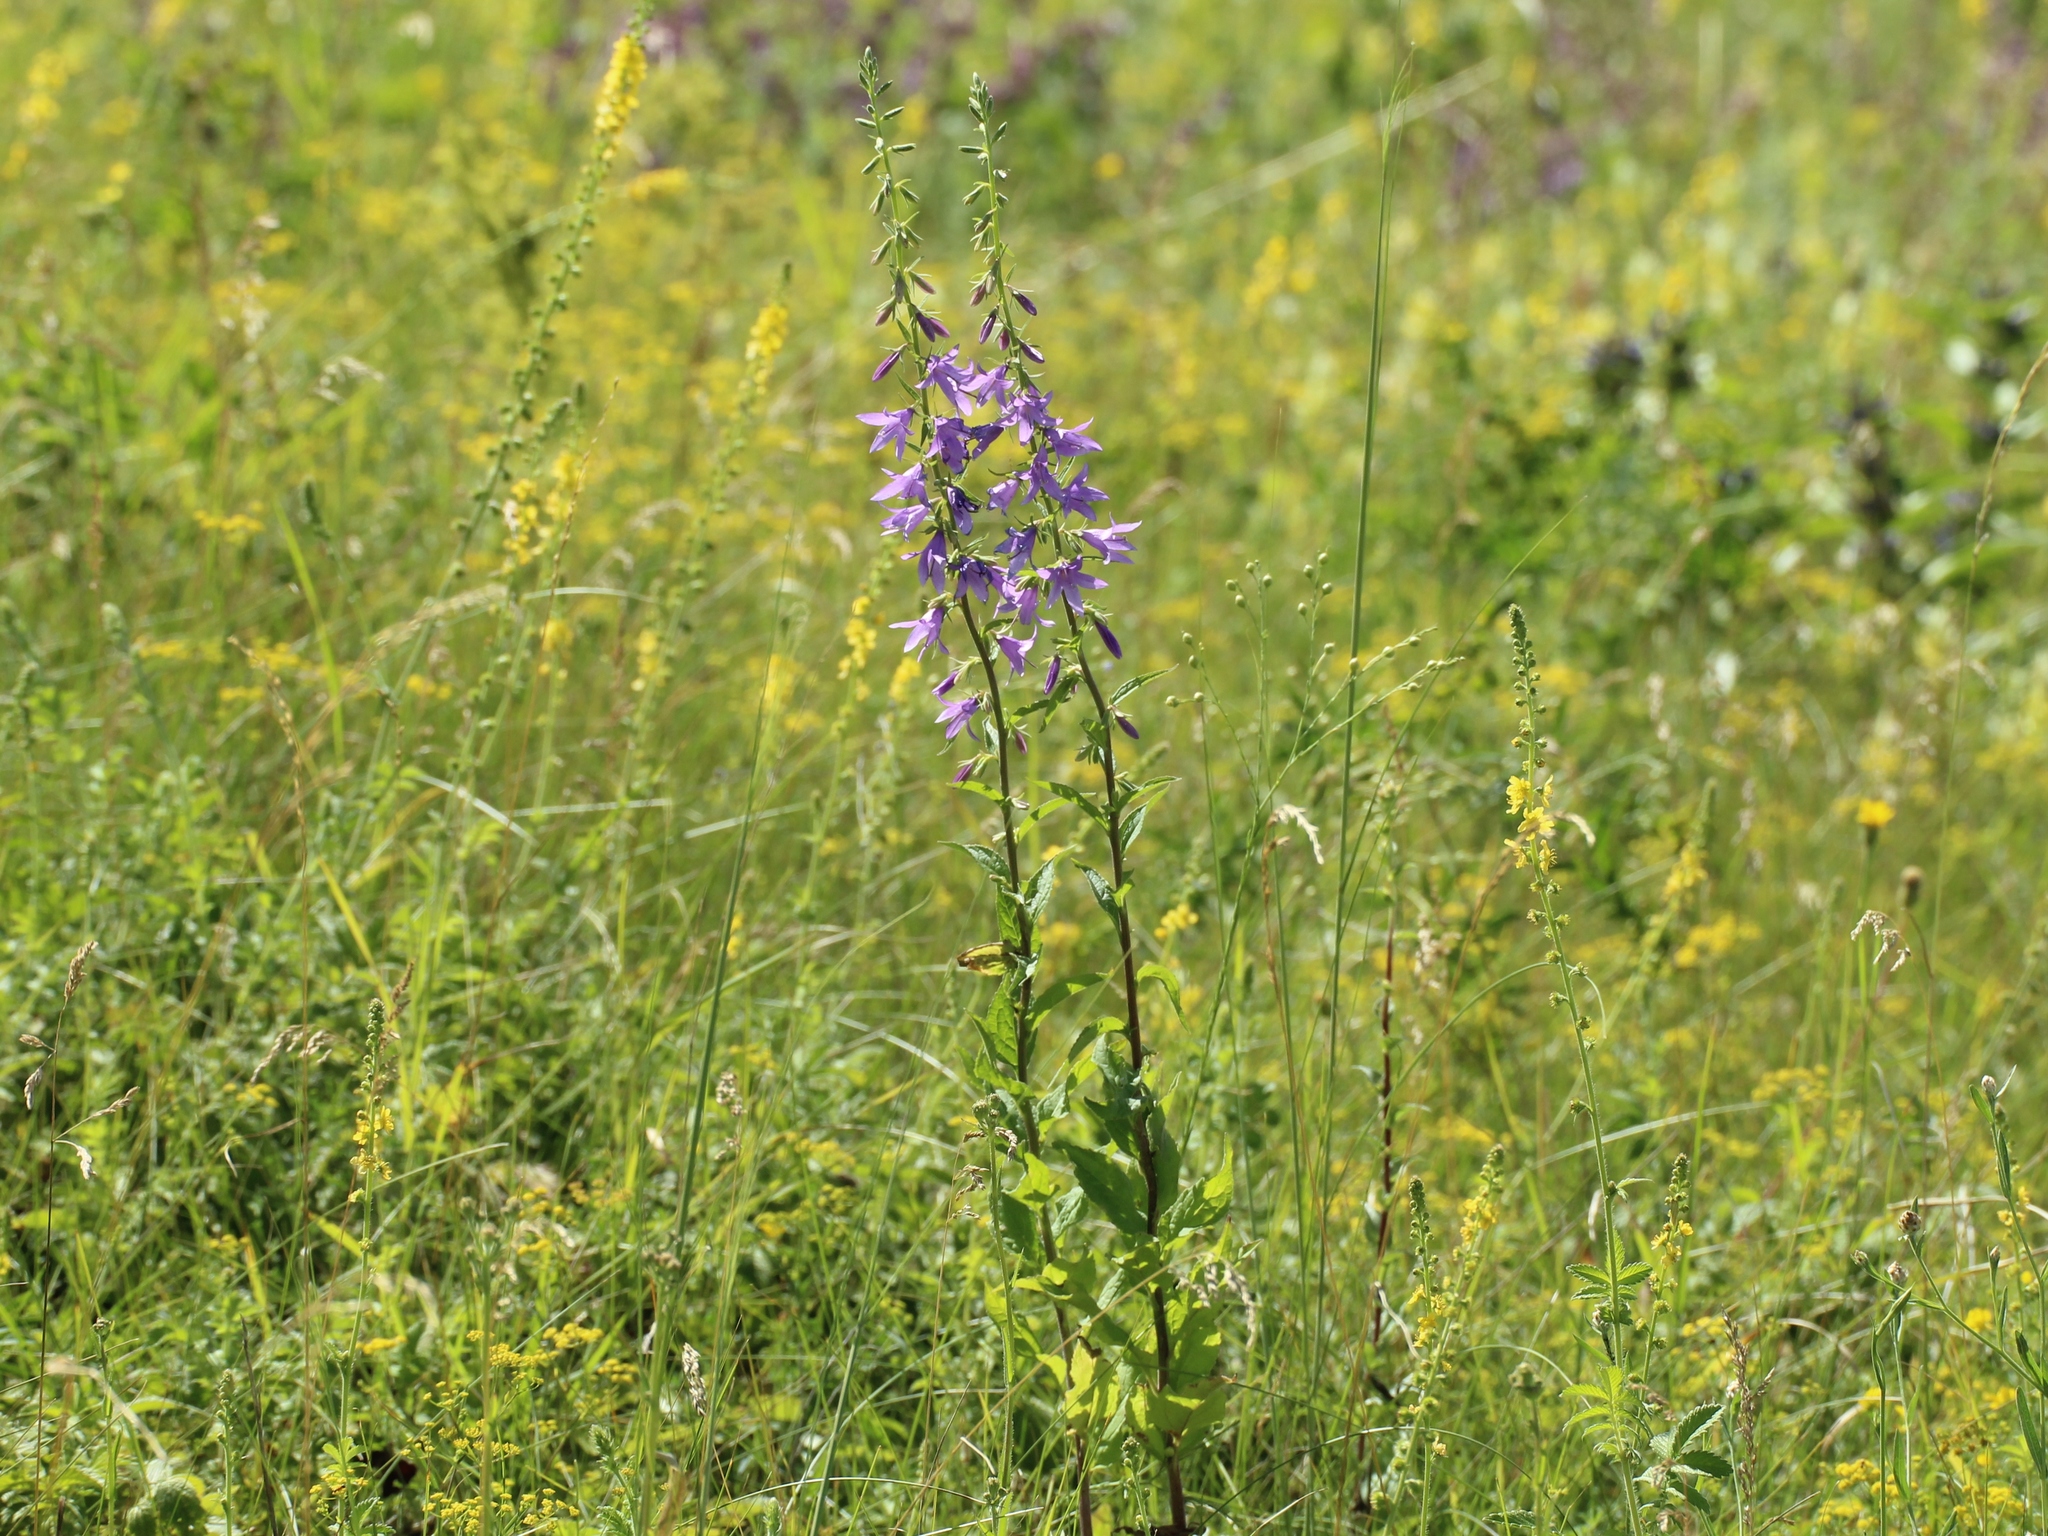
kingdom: Plantae
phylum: Tracheophyta
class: Magnoliopsida
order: Asterales
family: Campanulaceae
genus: Campanula
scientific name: Campanula rapunculoides
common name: Creeping bellflower
